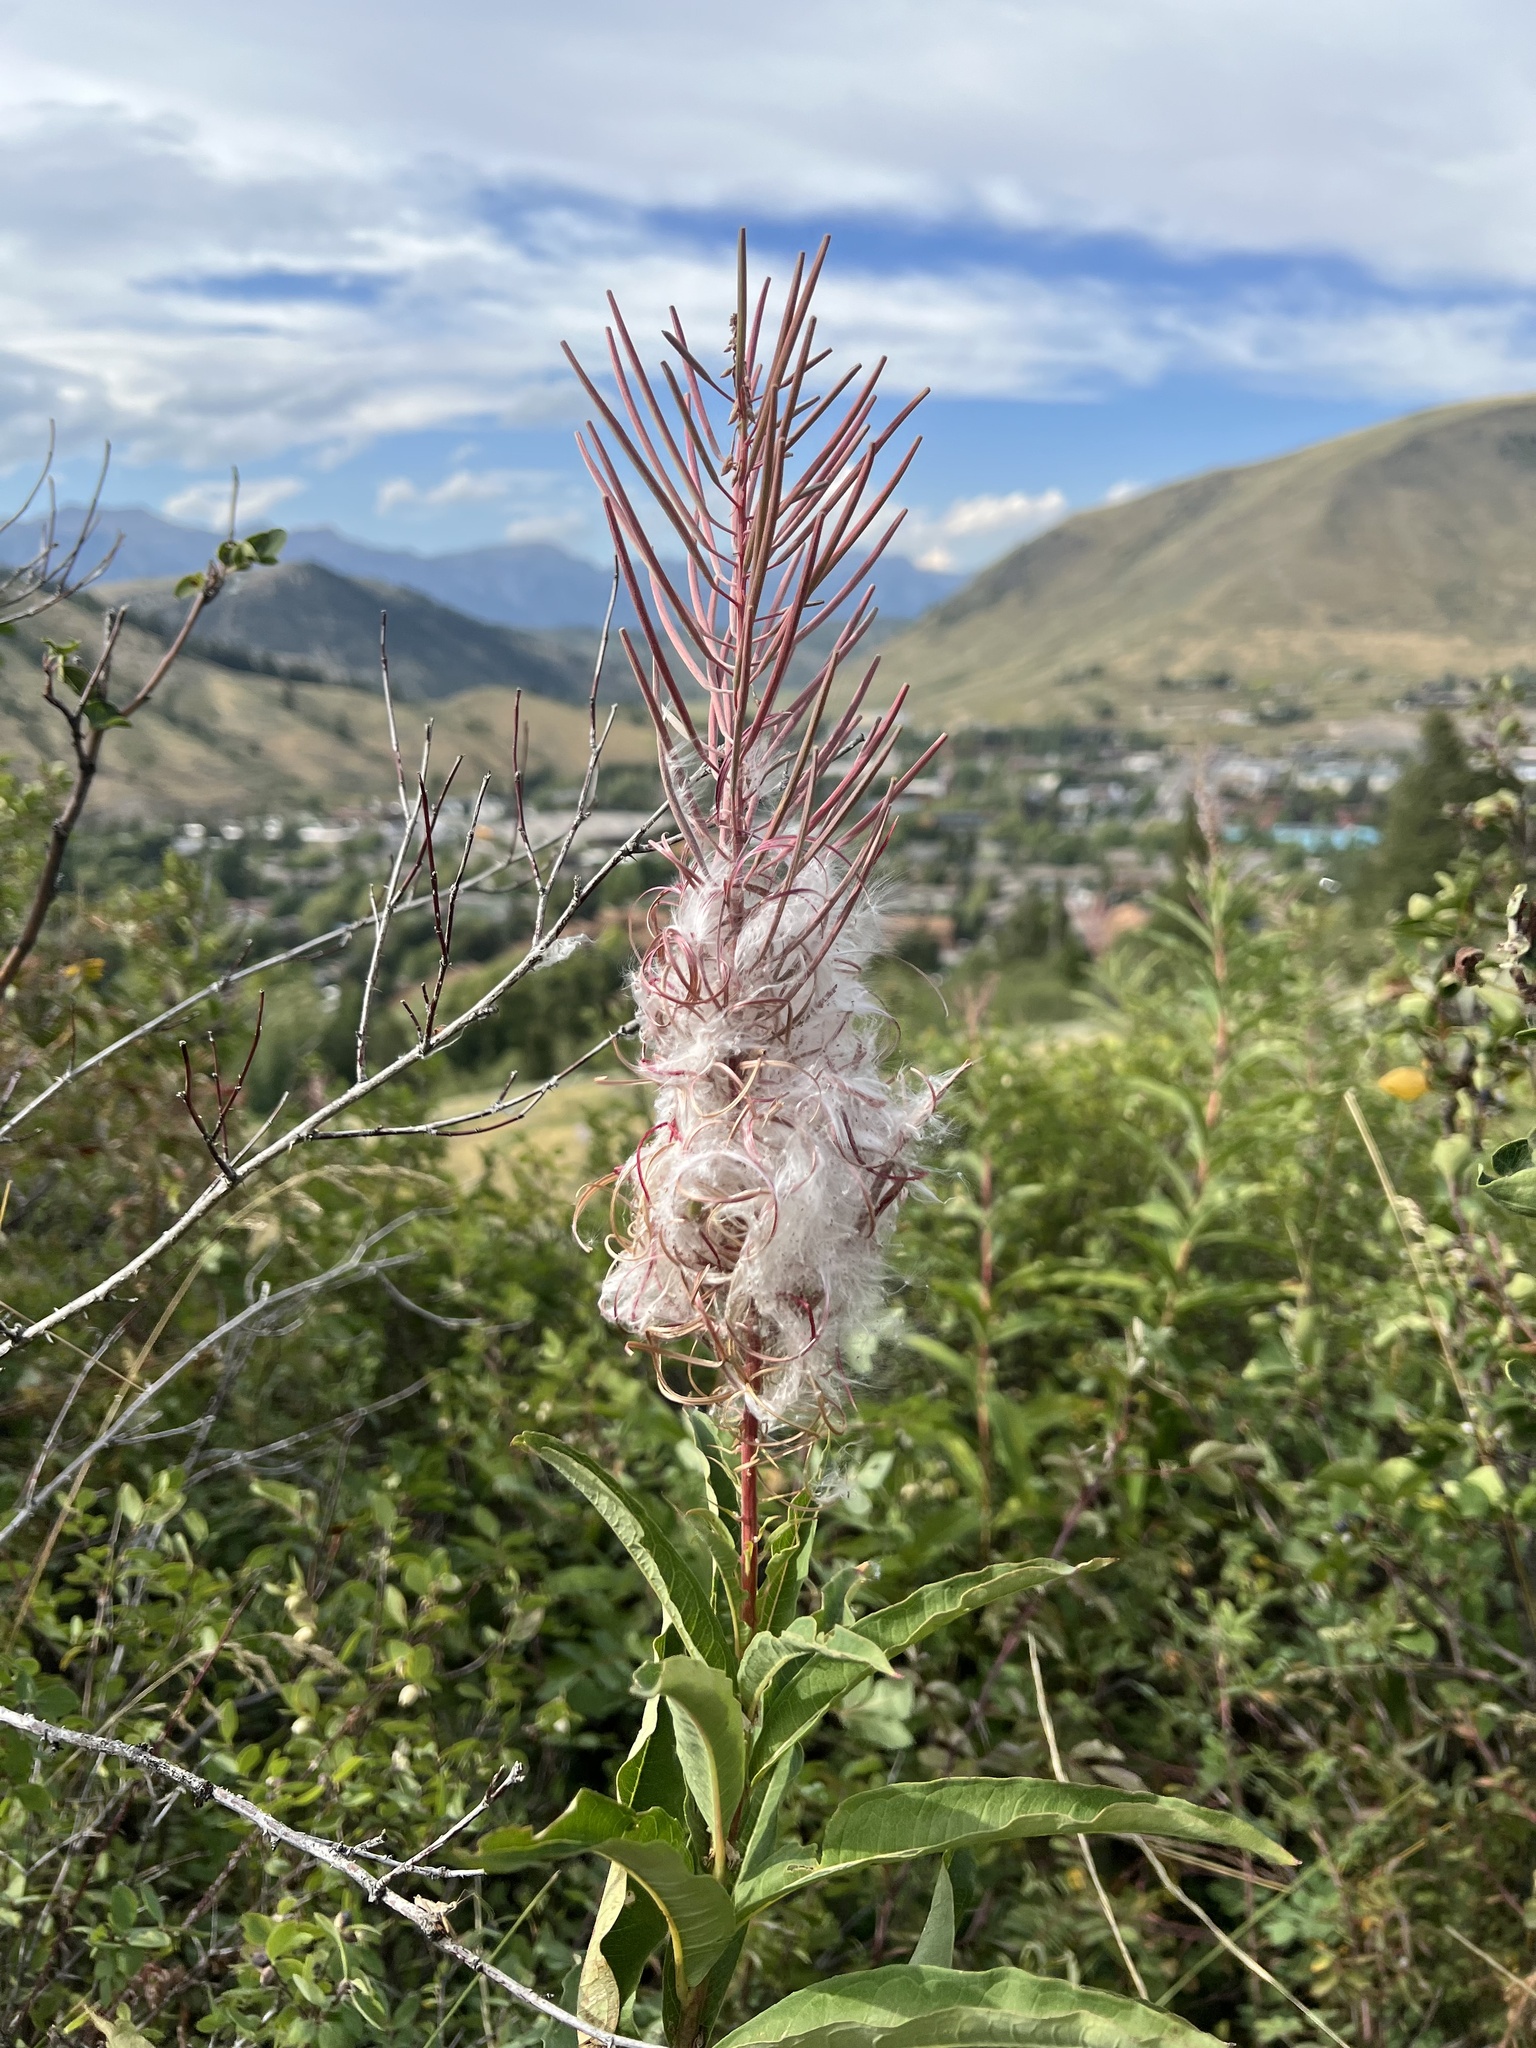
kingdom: Plantae
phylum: Tracheophyta
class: Magnoliopsida
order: Myrtales
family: Onagraceae
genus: Chamaenerion
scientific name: Chamaenerion angustifolium
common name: Fireweed
